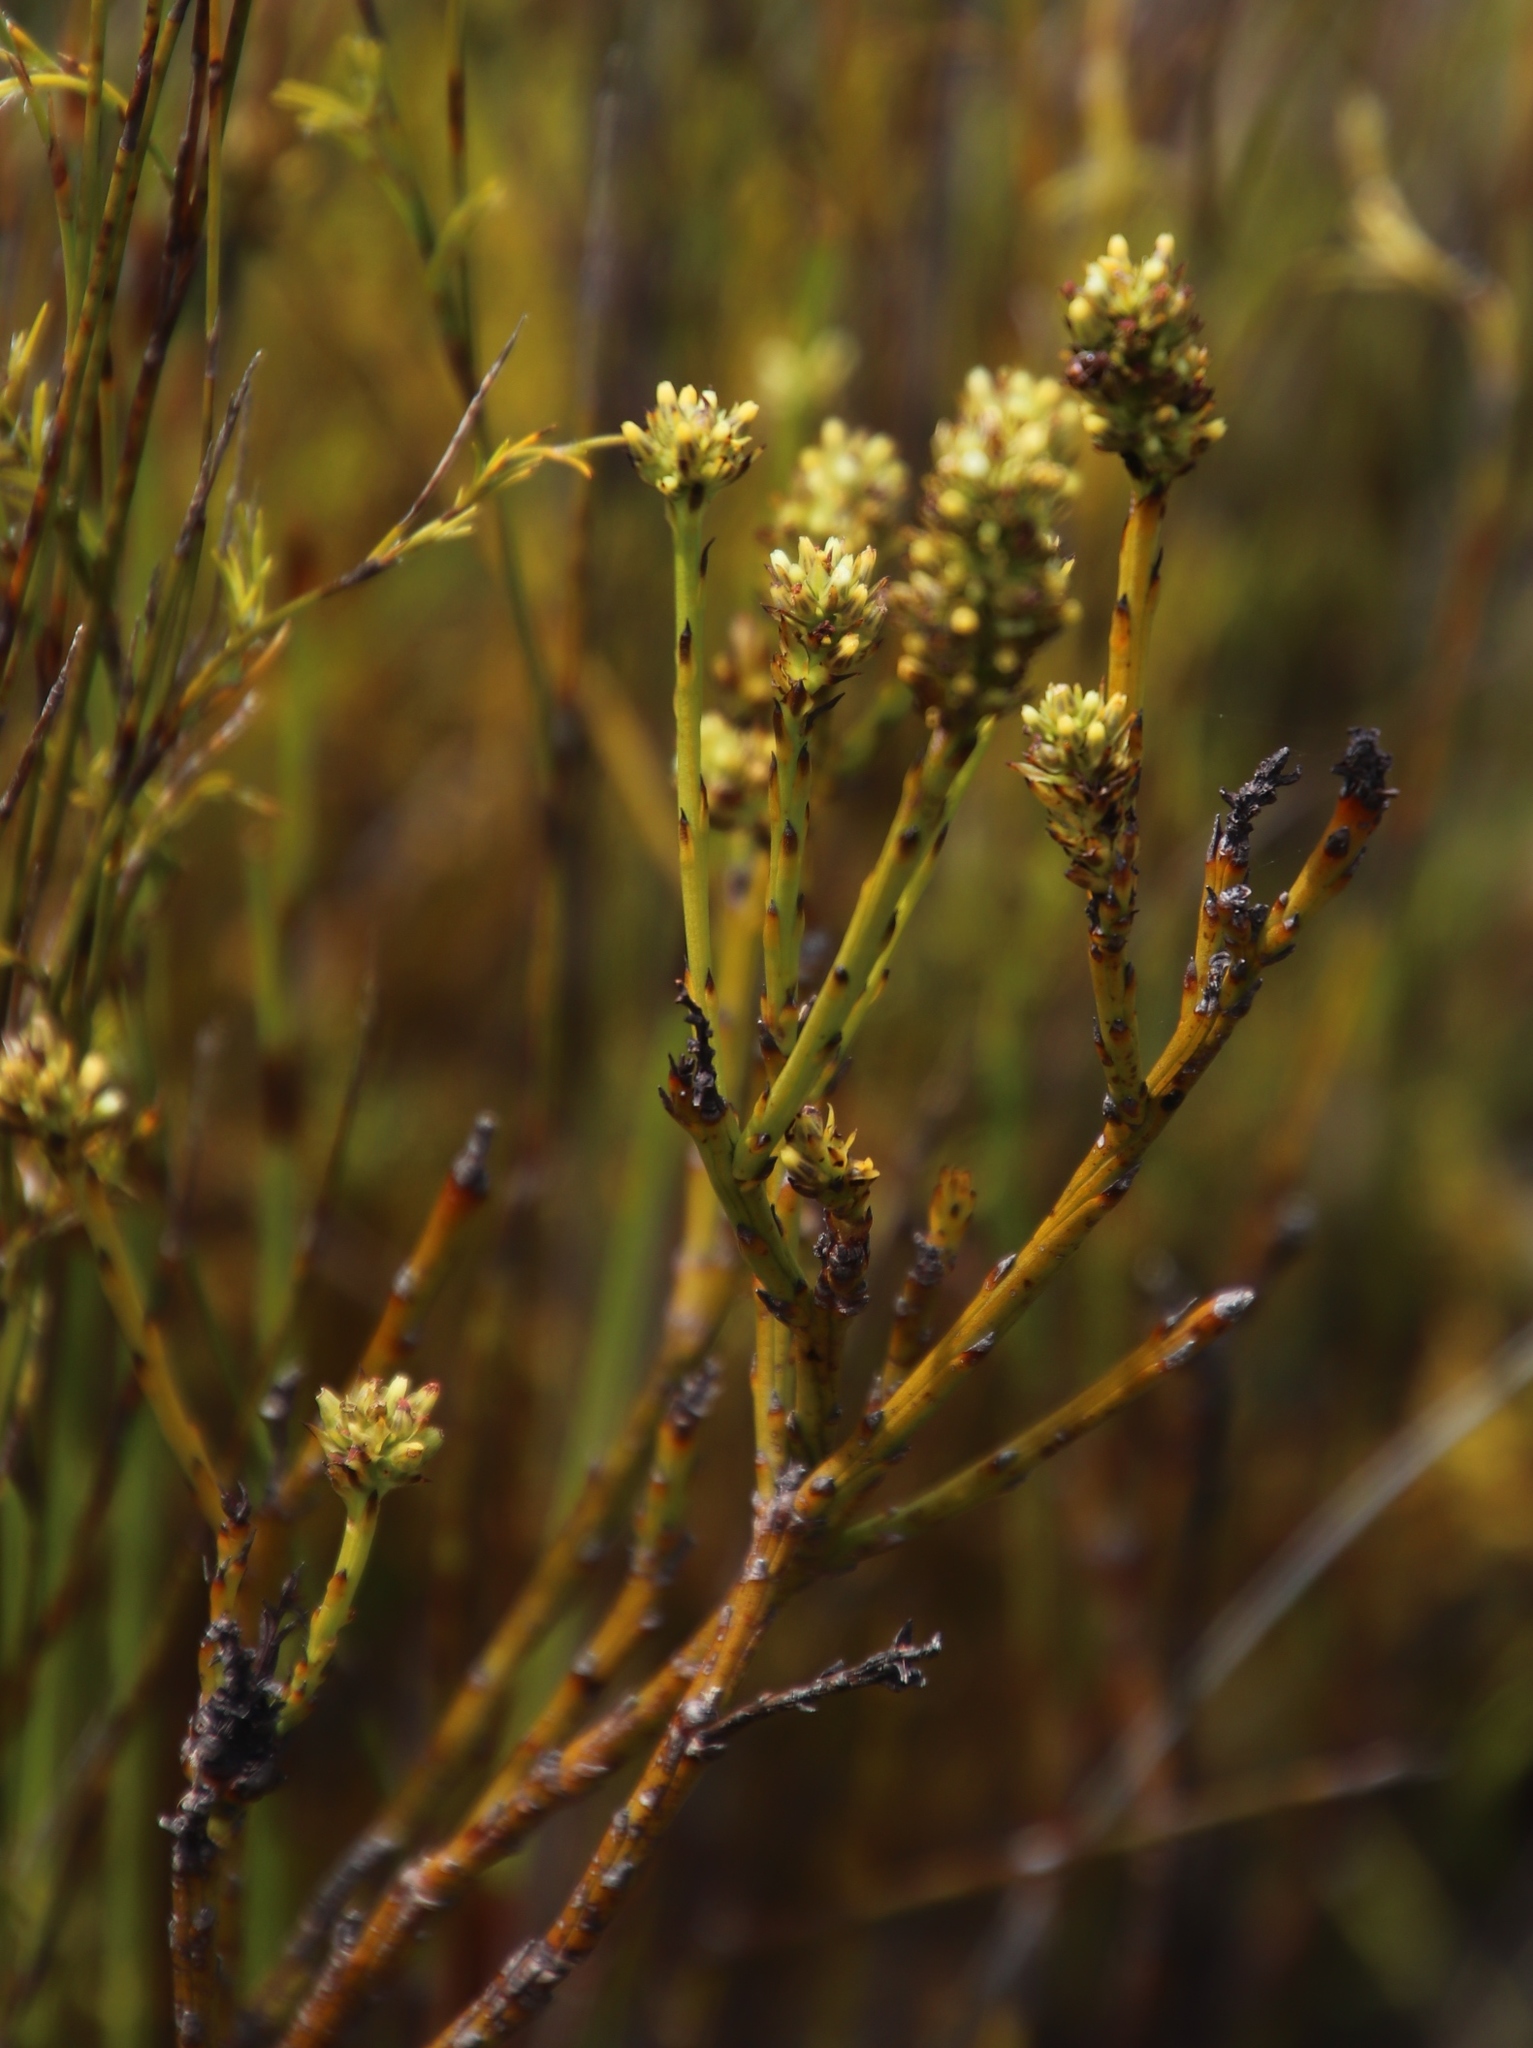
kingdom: Plantae
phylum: Tracheophyta
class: Magnoliopsida
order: Santalales
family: Thesiaceae
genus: Thesium
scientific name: Thesium spicatum
